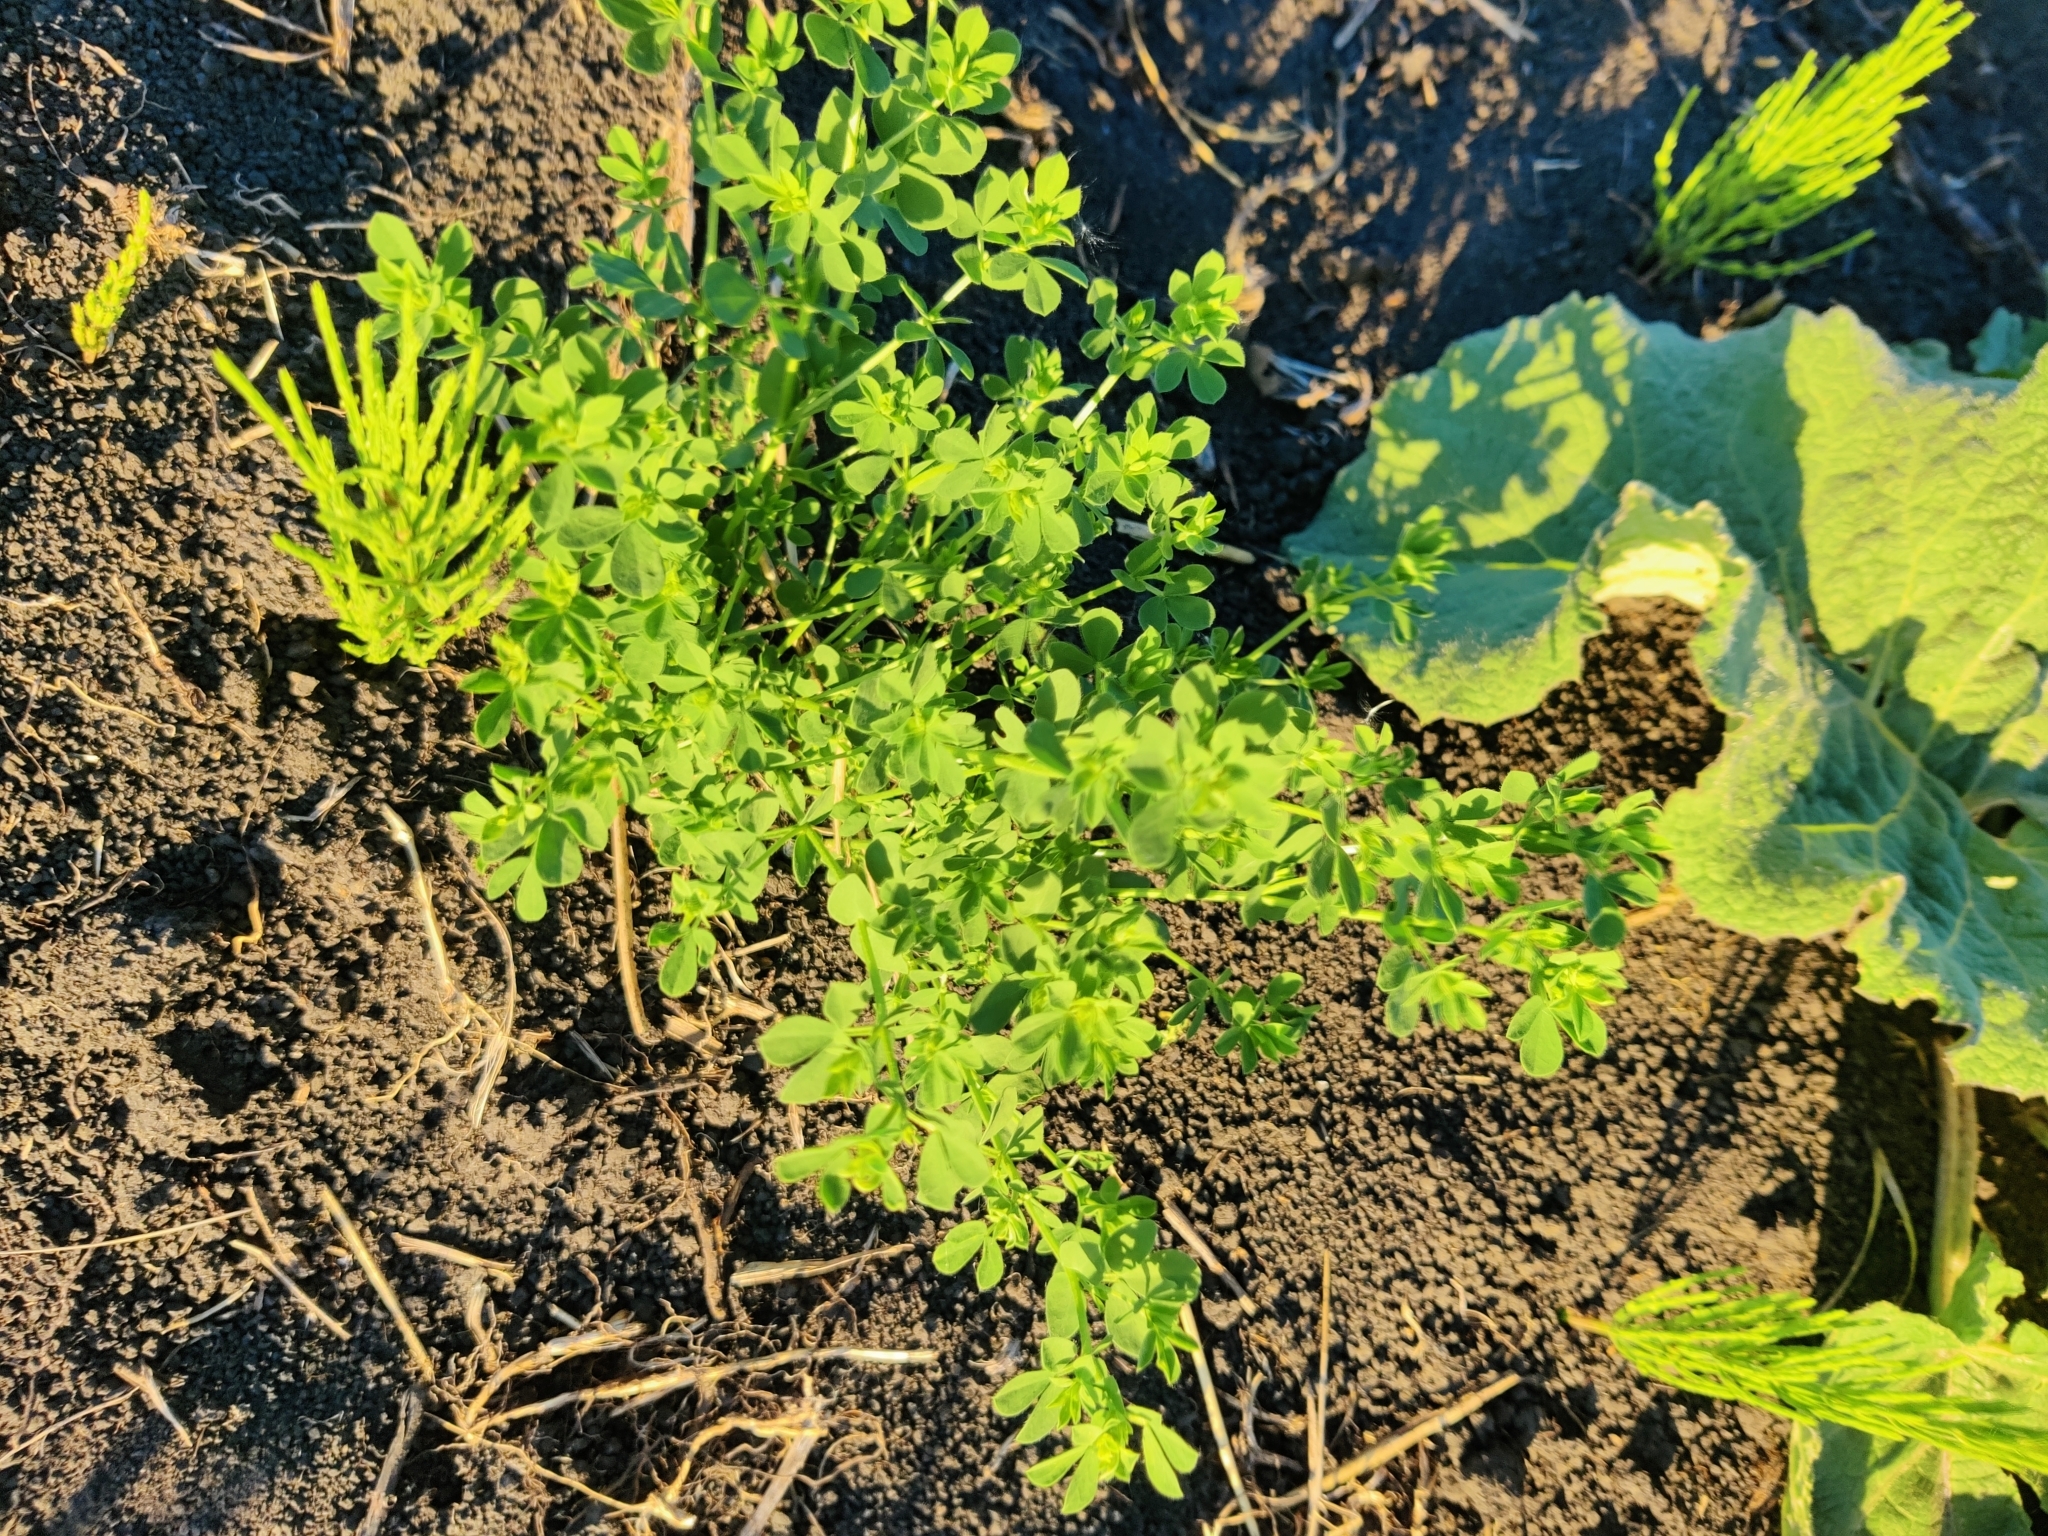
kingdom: Plantae
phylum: Tracheophyta
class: Magnoliopsida
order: Fabales
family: Fabaceae
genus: Lotus
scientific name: Lotus corniculatus
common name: Common bird's-foot-trefoil
